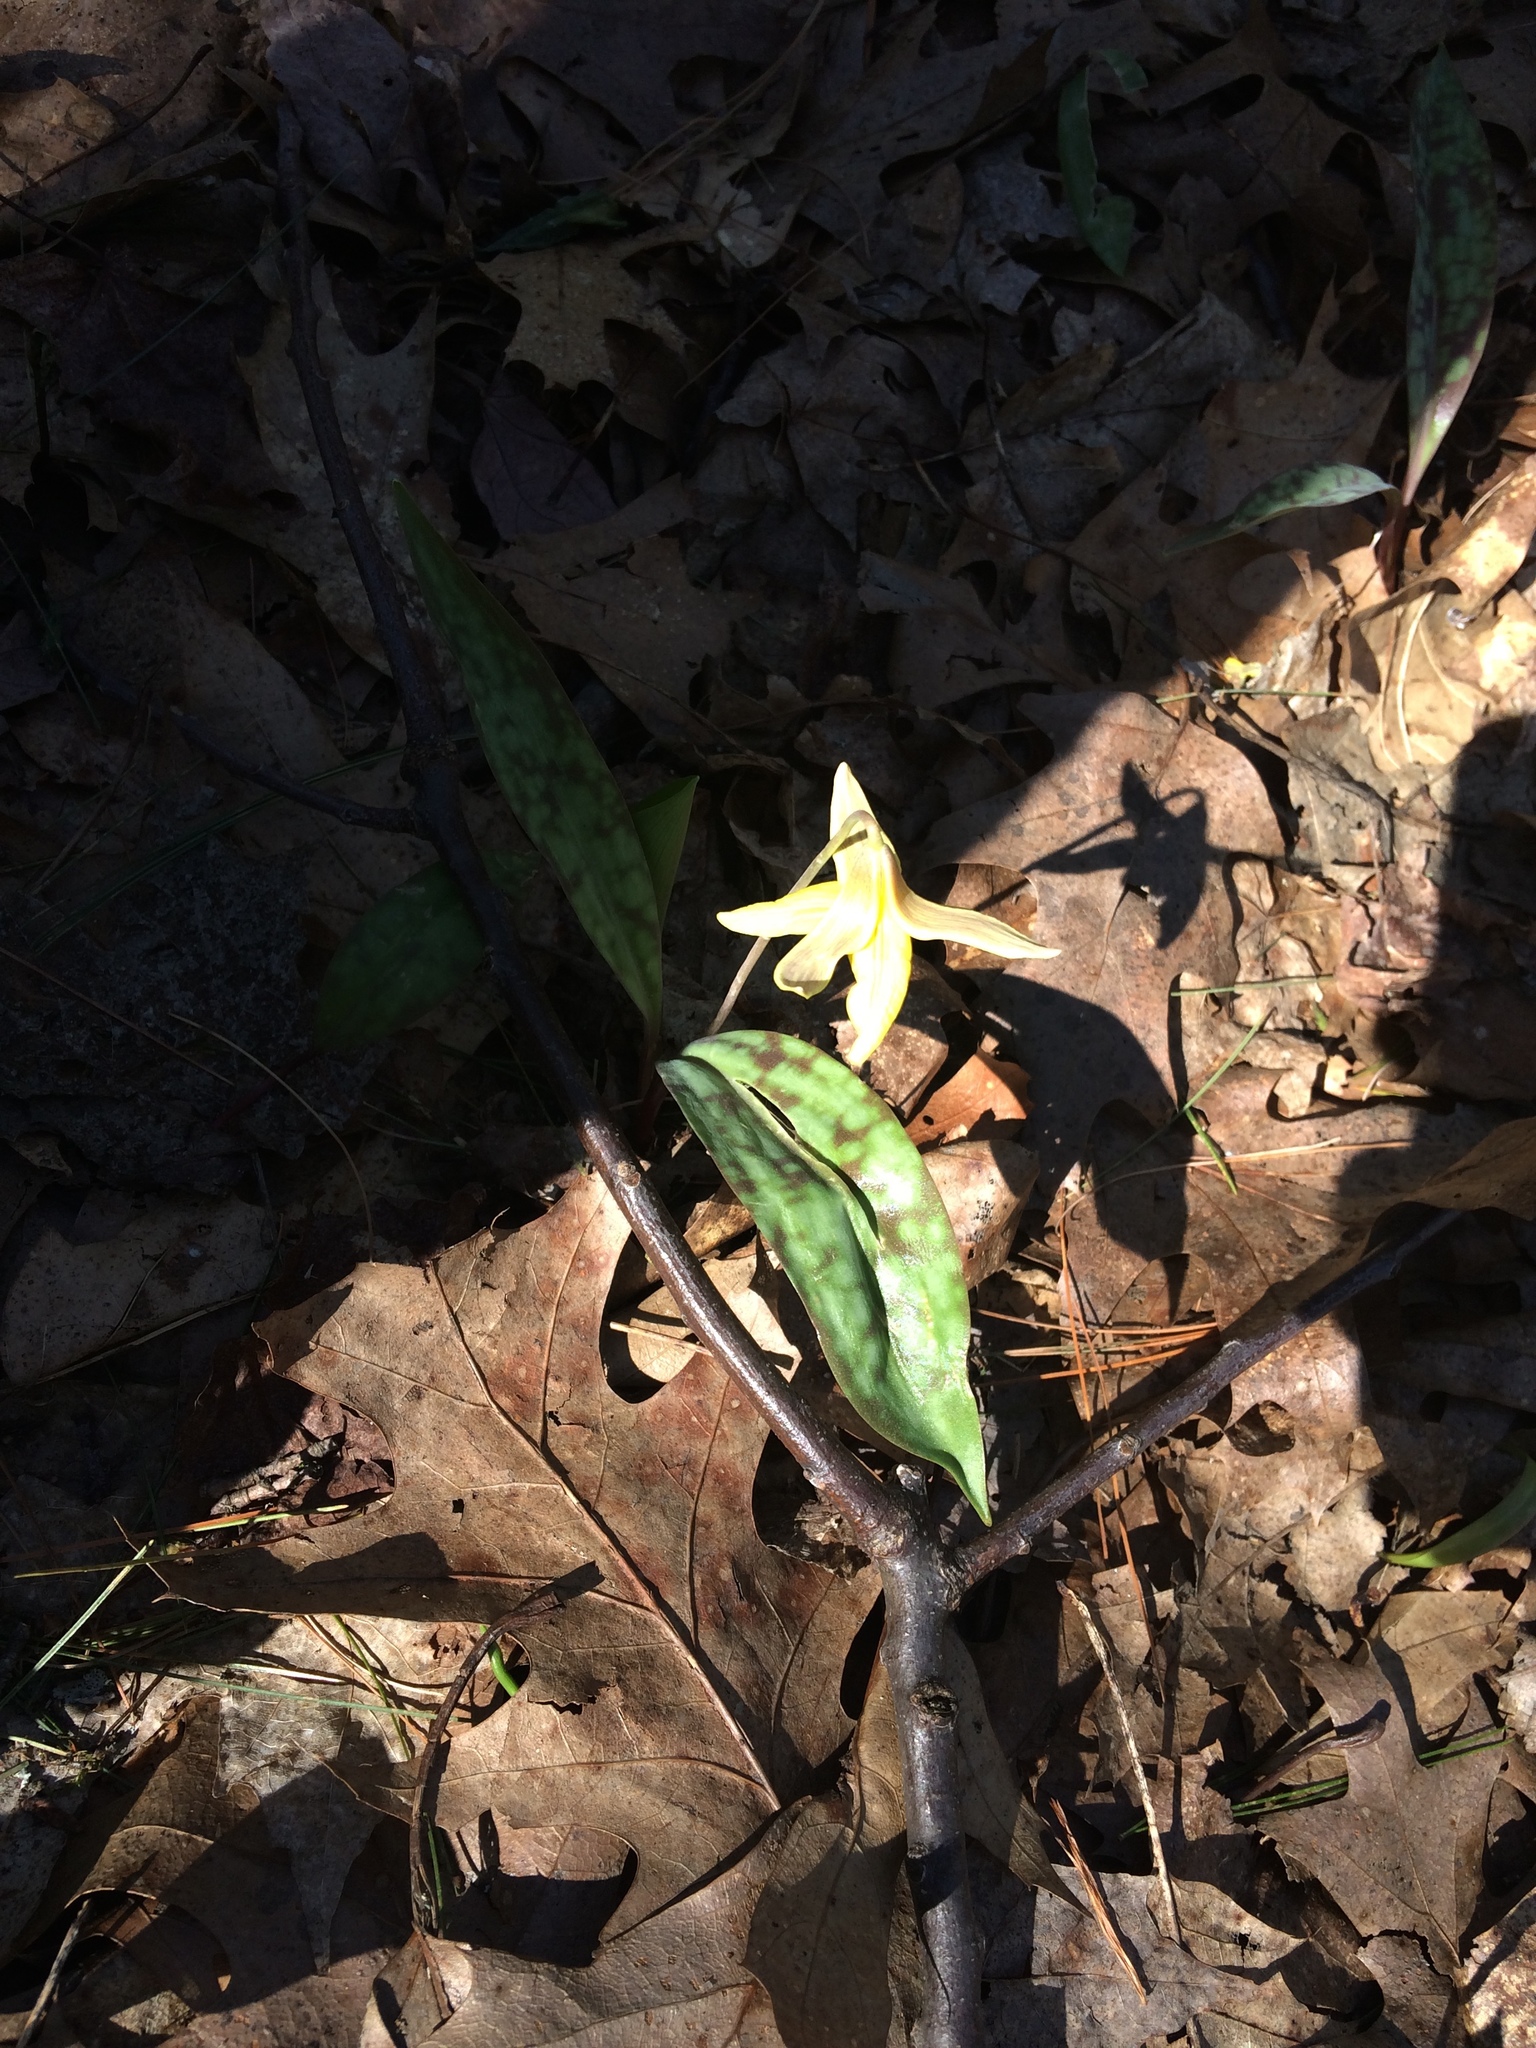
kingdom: Plantae
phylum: Tracheophyta
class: Liliopsida
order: Liliales
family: Liliaceae
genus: Erythronium
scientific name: Erythronium americanum
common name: Yellow adder's-tongue
